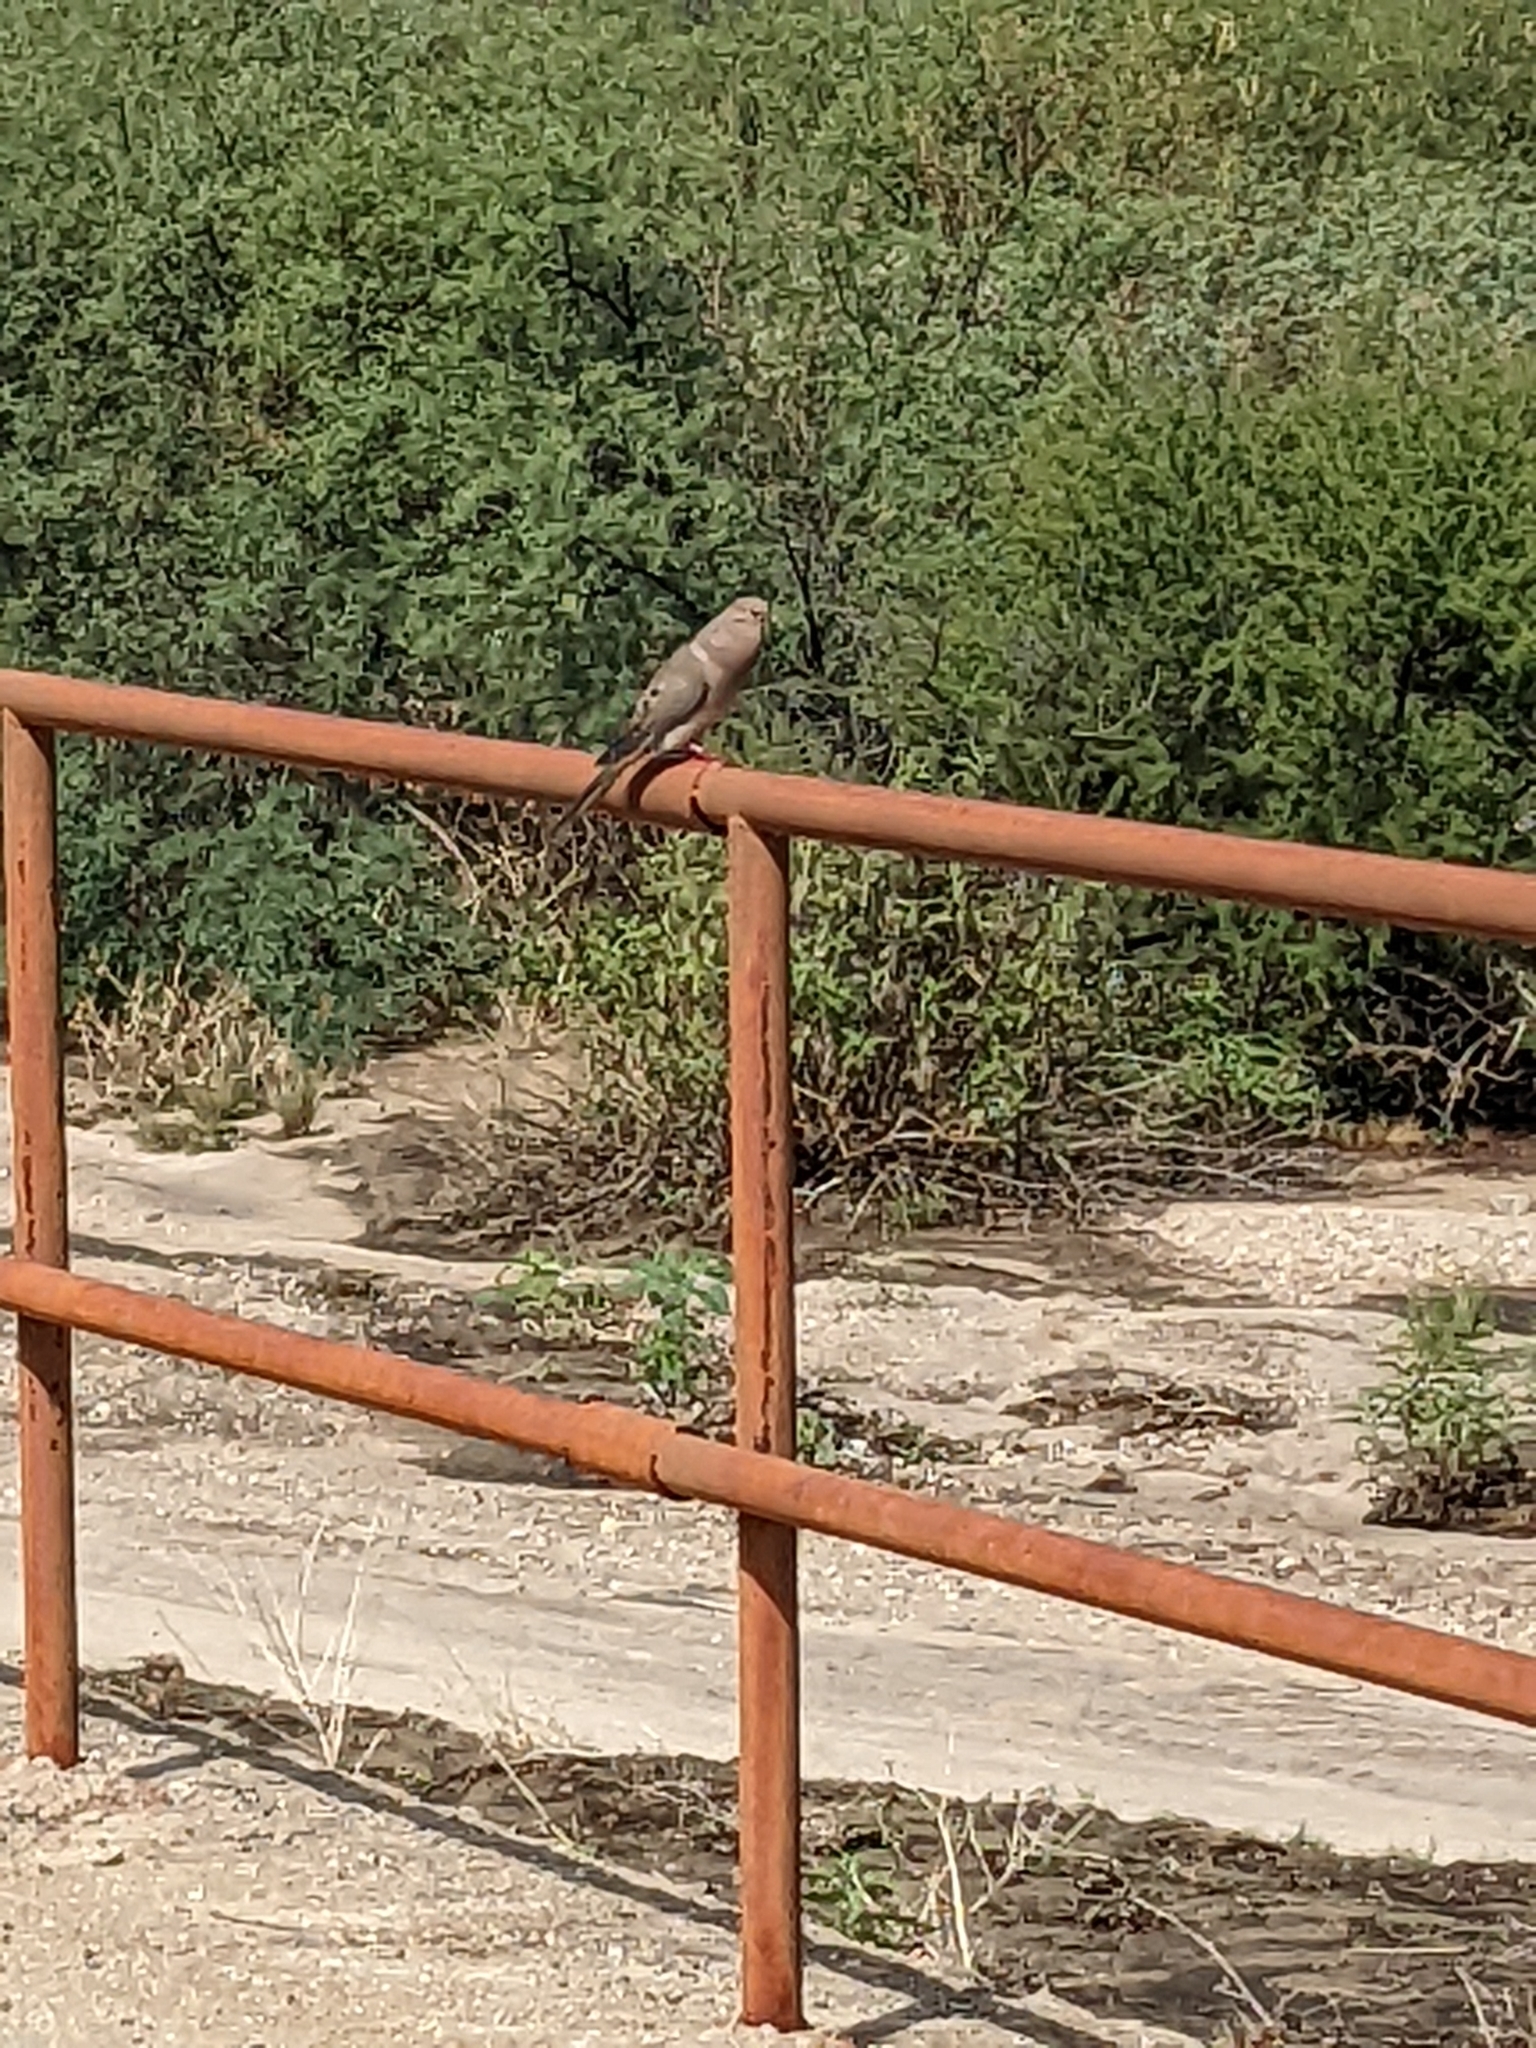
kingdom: Animalia
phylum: Chordata
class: Aves
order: Columbiformes
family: Columbidae
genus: Zenaida
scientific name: Zenaida macroura
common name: Mourning dove
